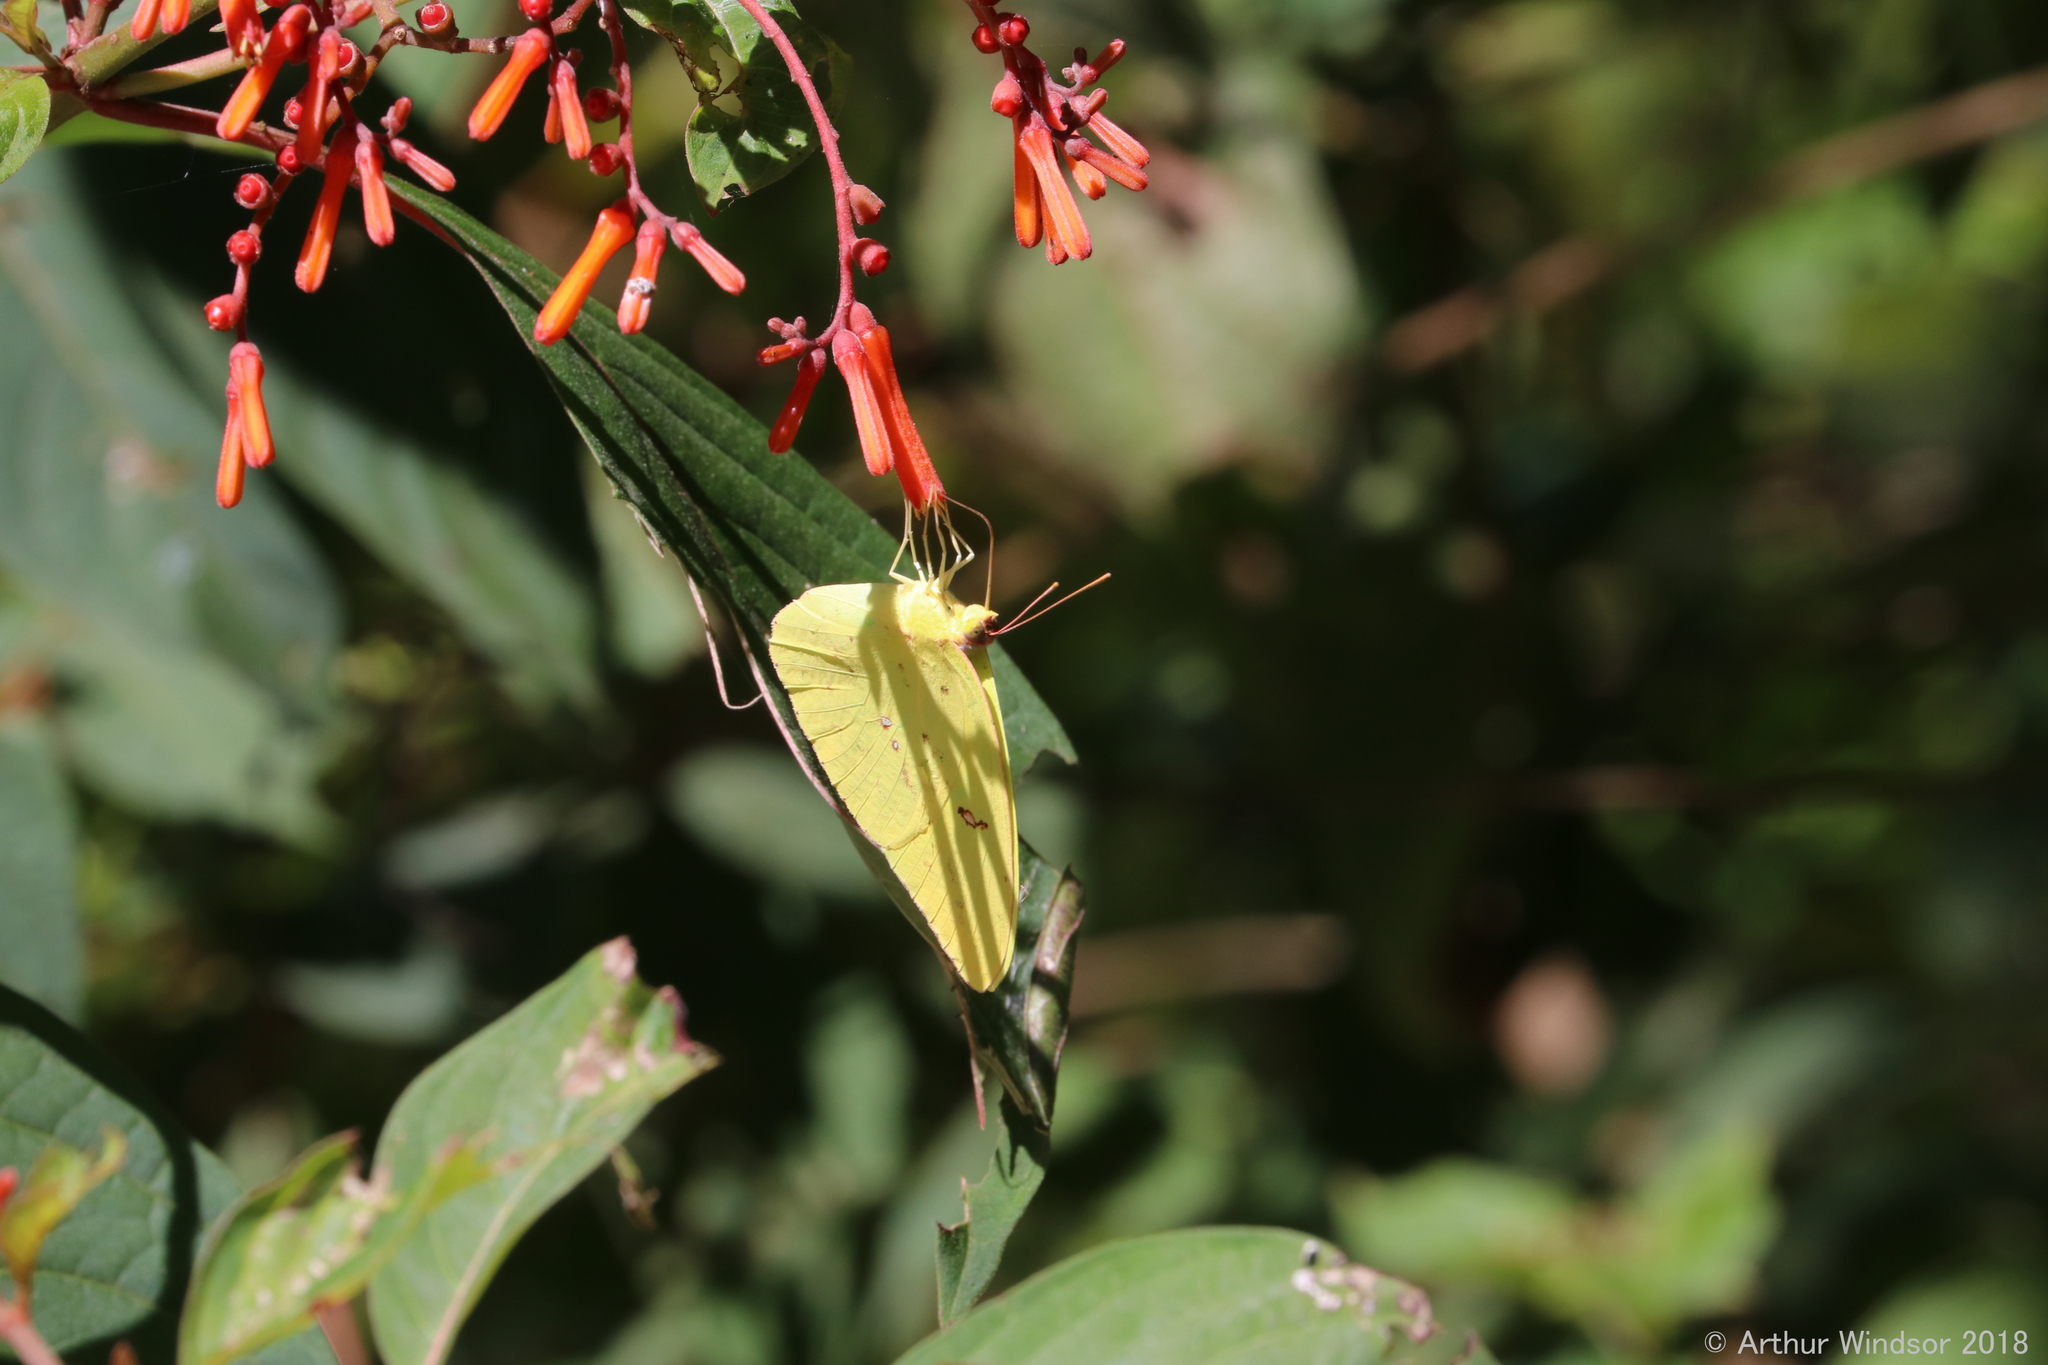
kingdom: Animalia
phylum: Arthropoda
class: Insecta
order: Lepidoptera
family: Pieridae
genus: Phoebis
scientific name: Phoebis sennae
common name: Cloudless sulphur
